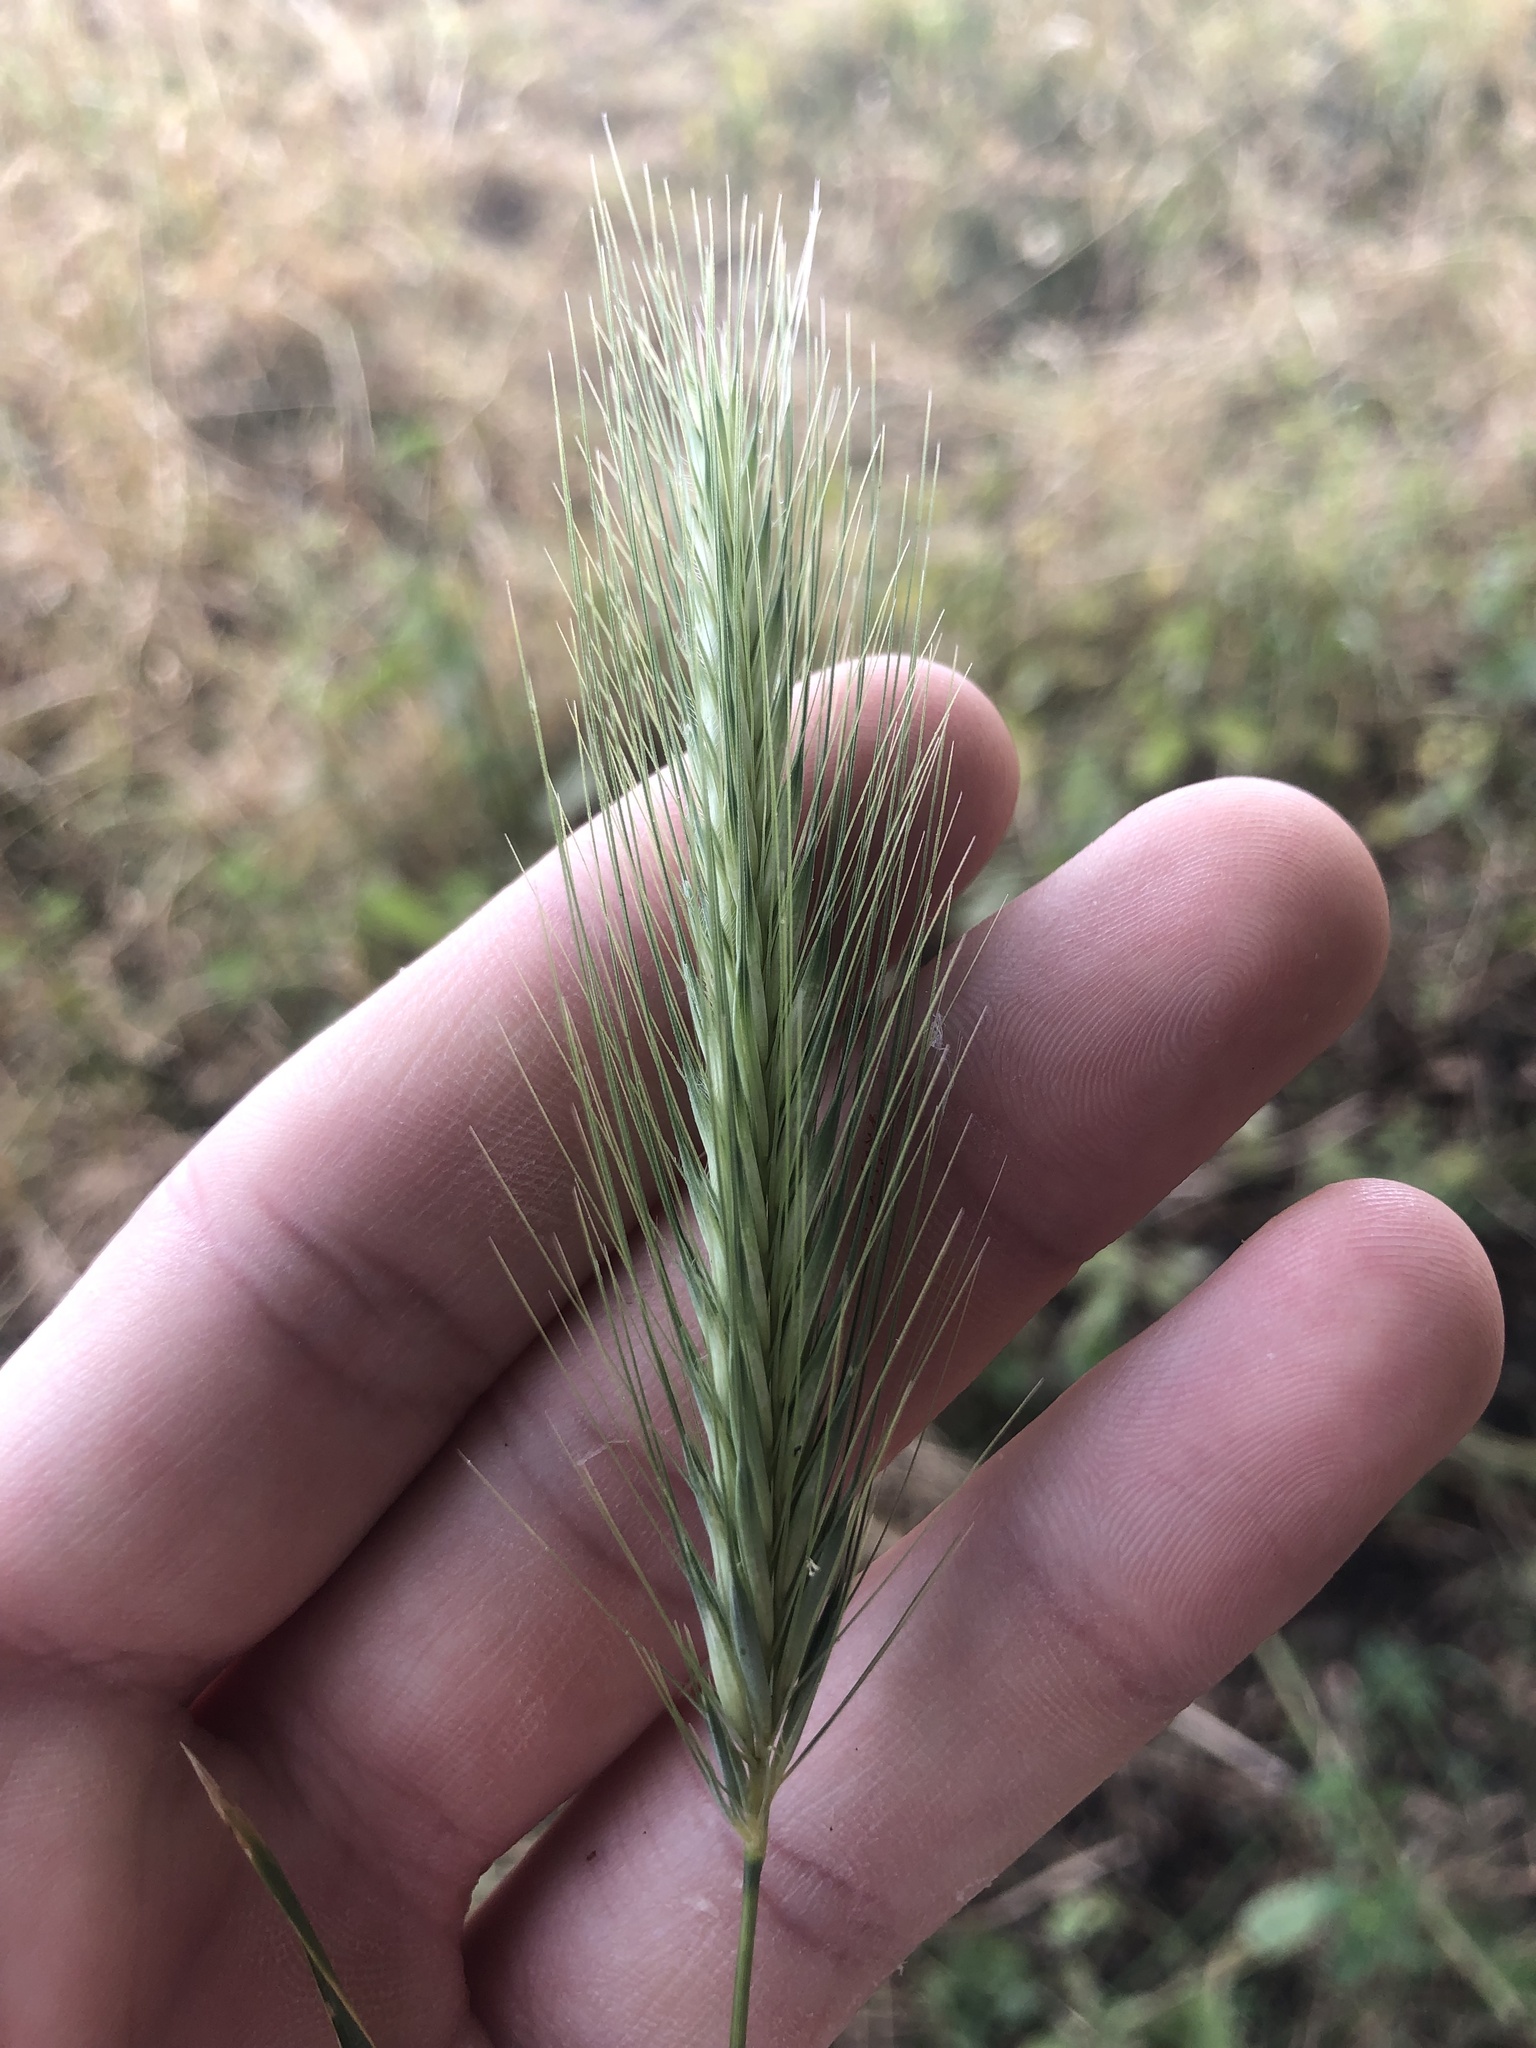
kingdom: Plantae
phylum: Tracheophyta
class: Liliopsida
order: Poales
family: Poaceae
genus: Hordeum
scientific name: Hordeum murinum
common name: Wall barley
